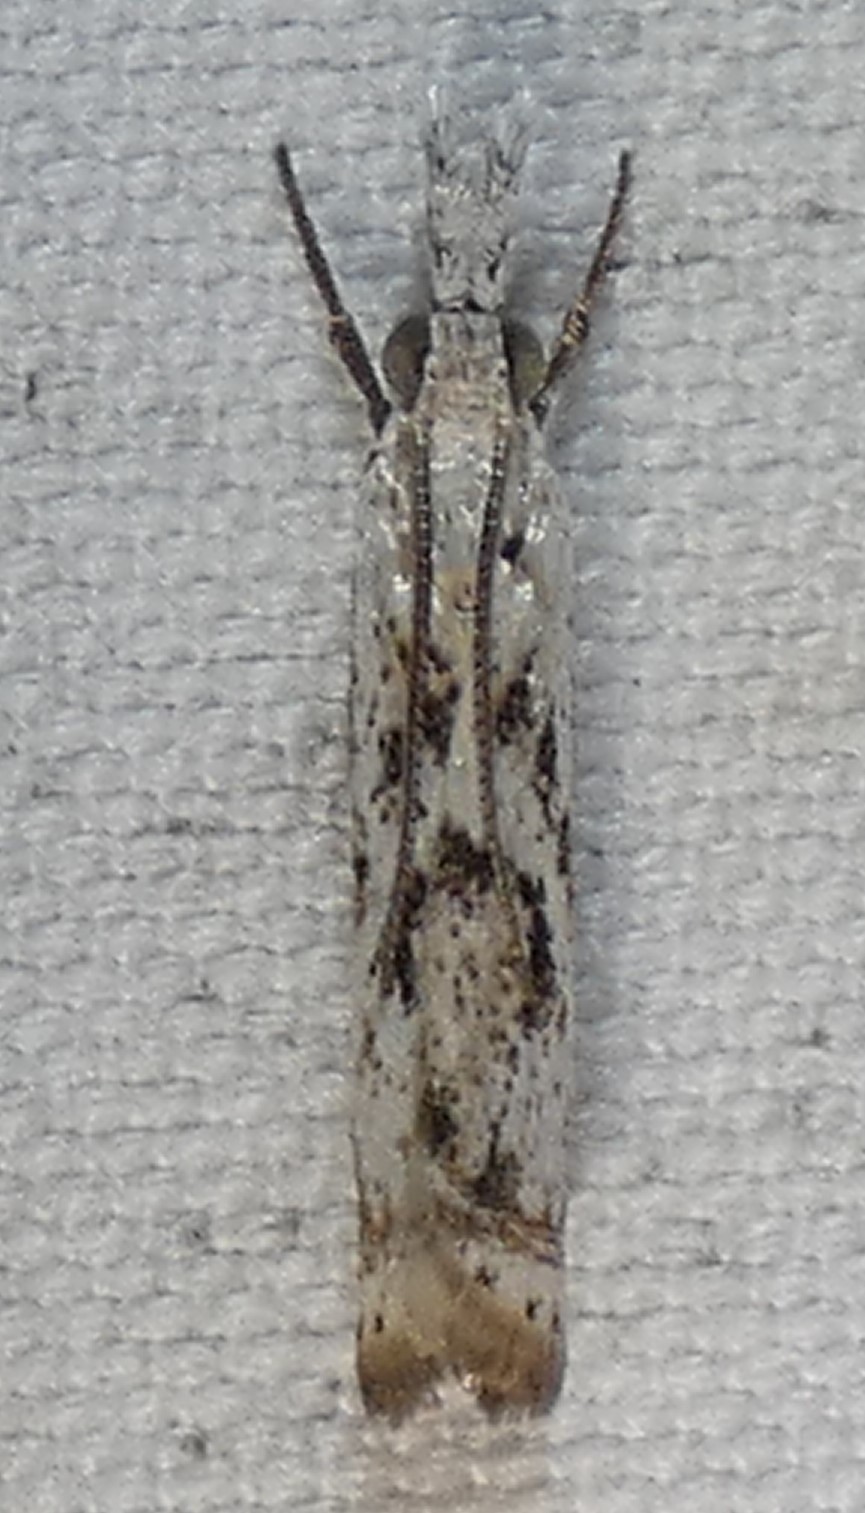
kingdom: Animalia
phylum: Arthropoda
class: Insecta
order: Lepidoptera
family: Crambidae
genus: Microcrambus
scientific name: Microcrambus immunellus
